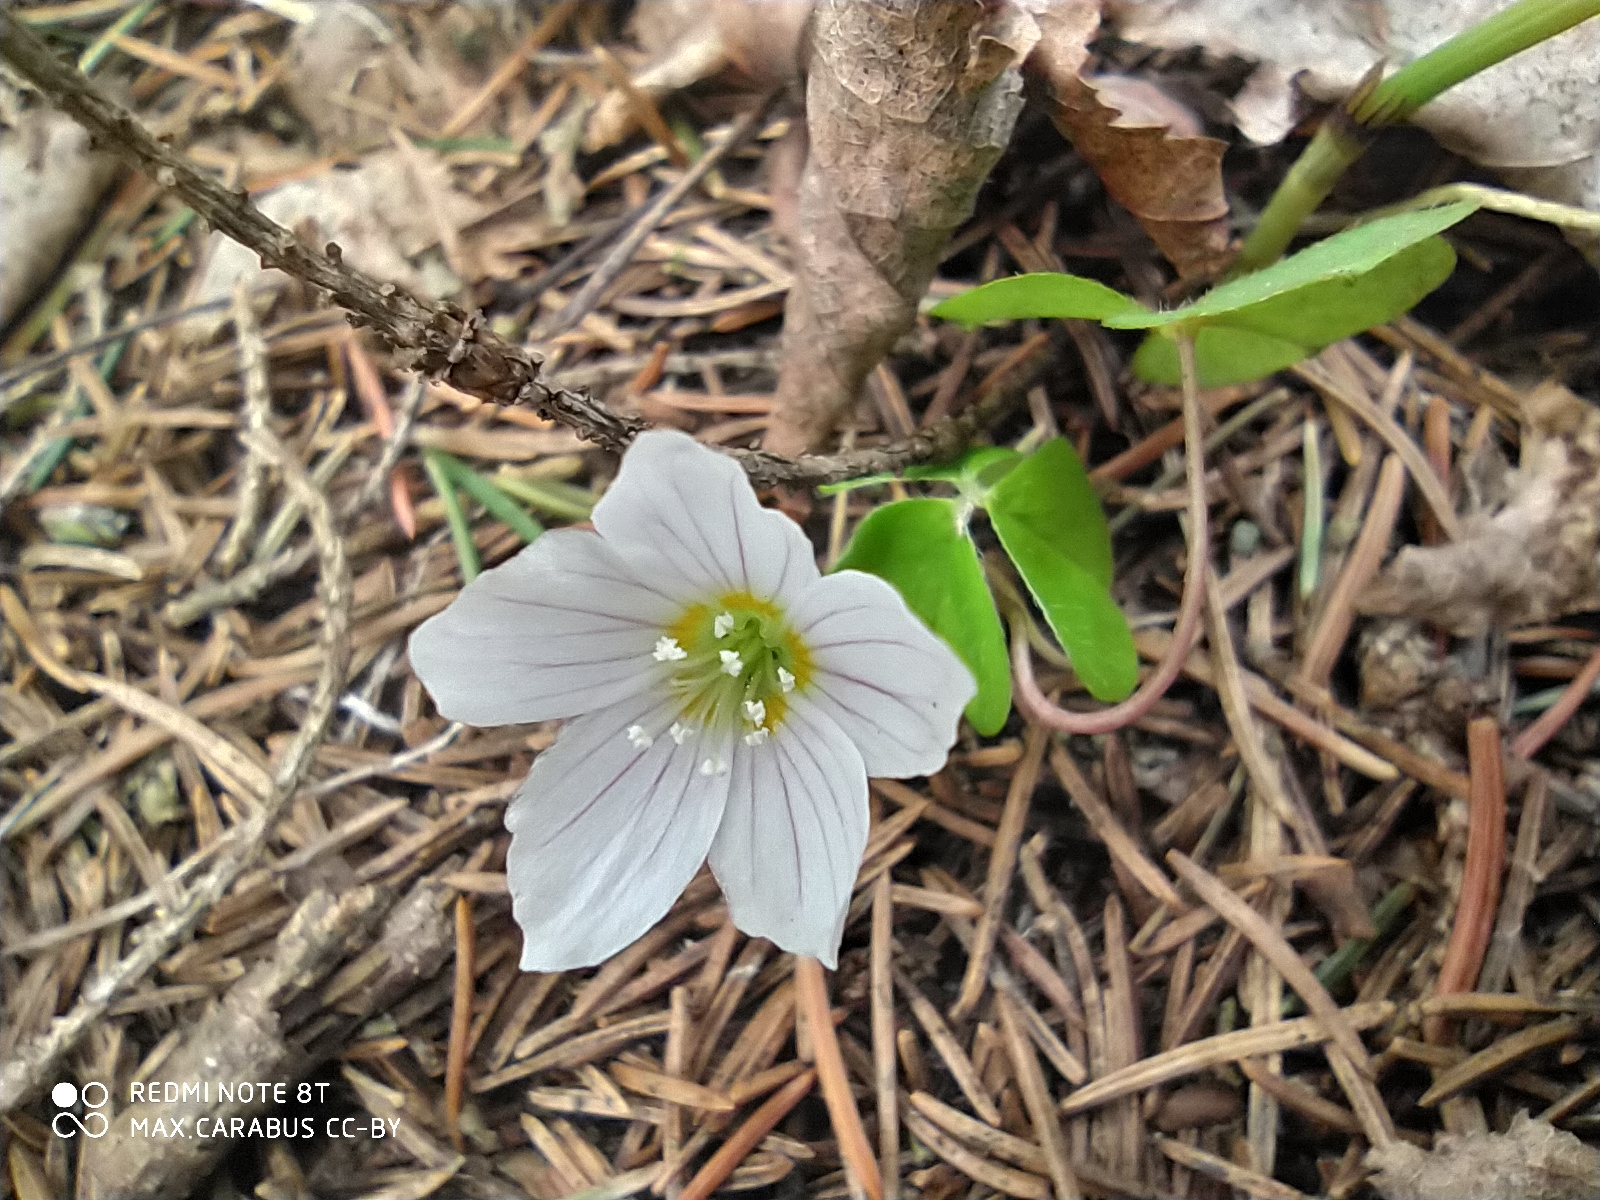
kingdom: Plantae
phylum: Tracheophyta
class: Magnoliopsida
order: Oxalidales
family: Oxalidaceae
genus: Oxalis
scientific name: Oxalis acetosella
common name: Wood-sorrel
